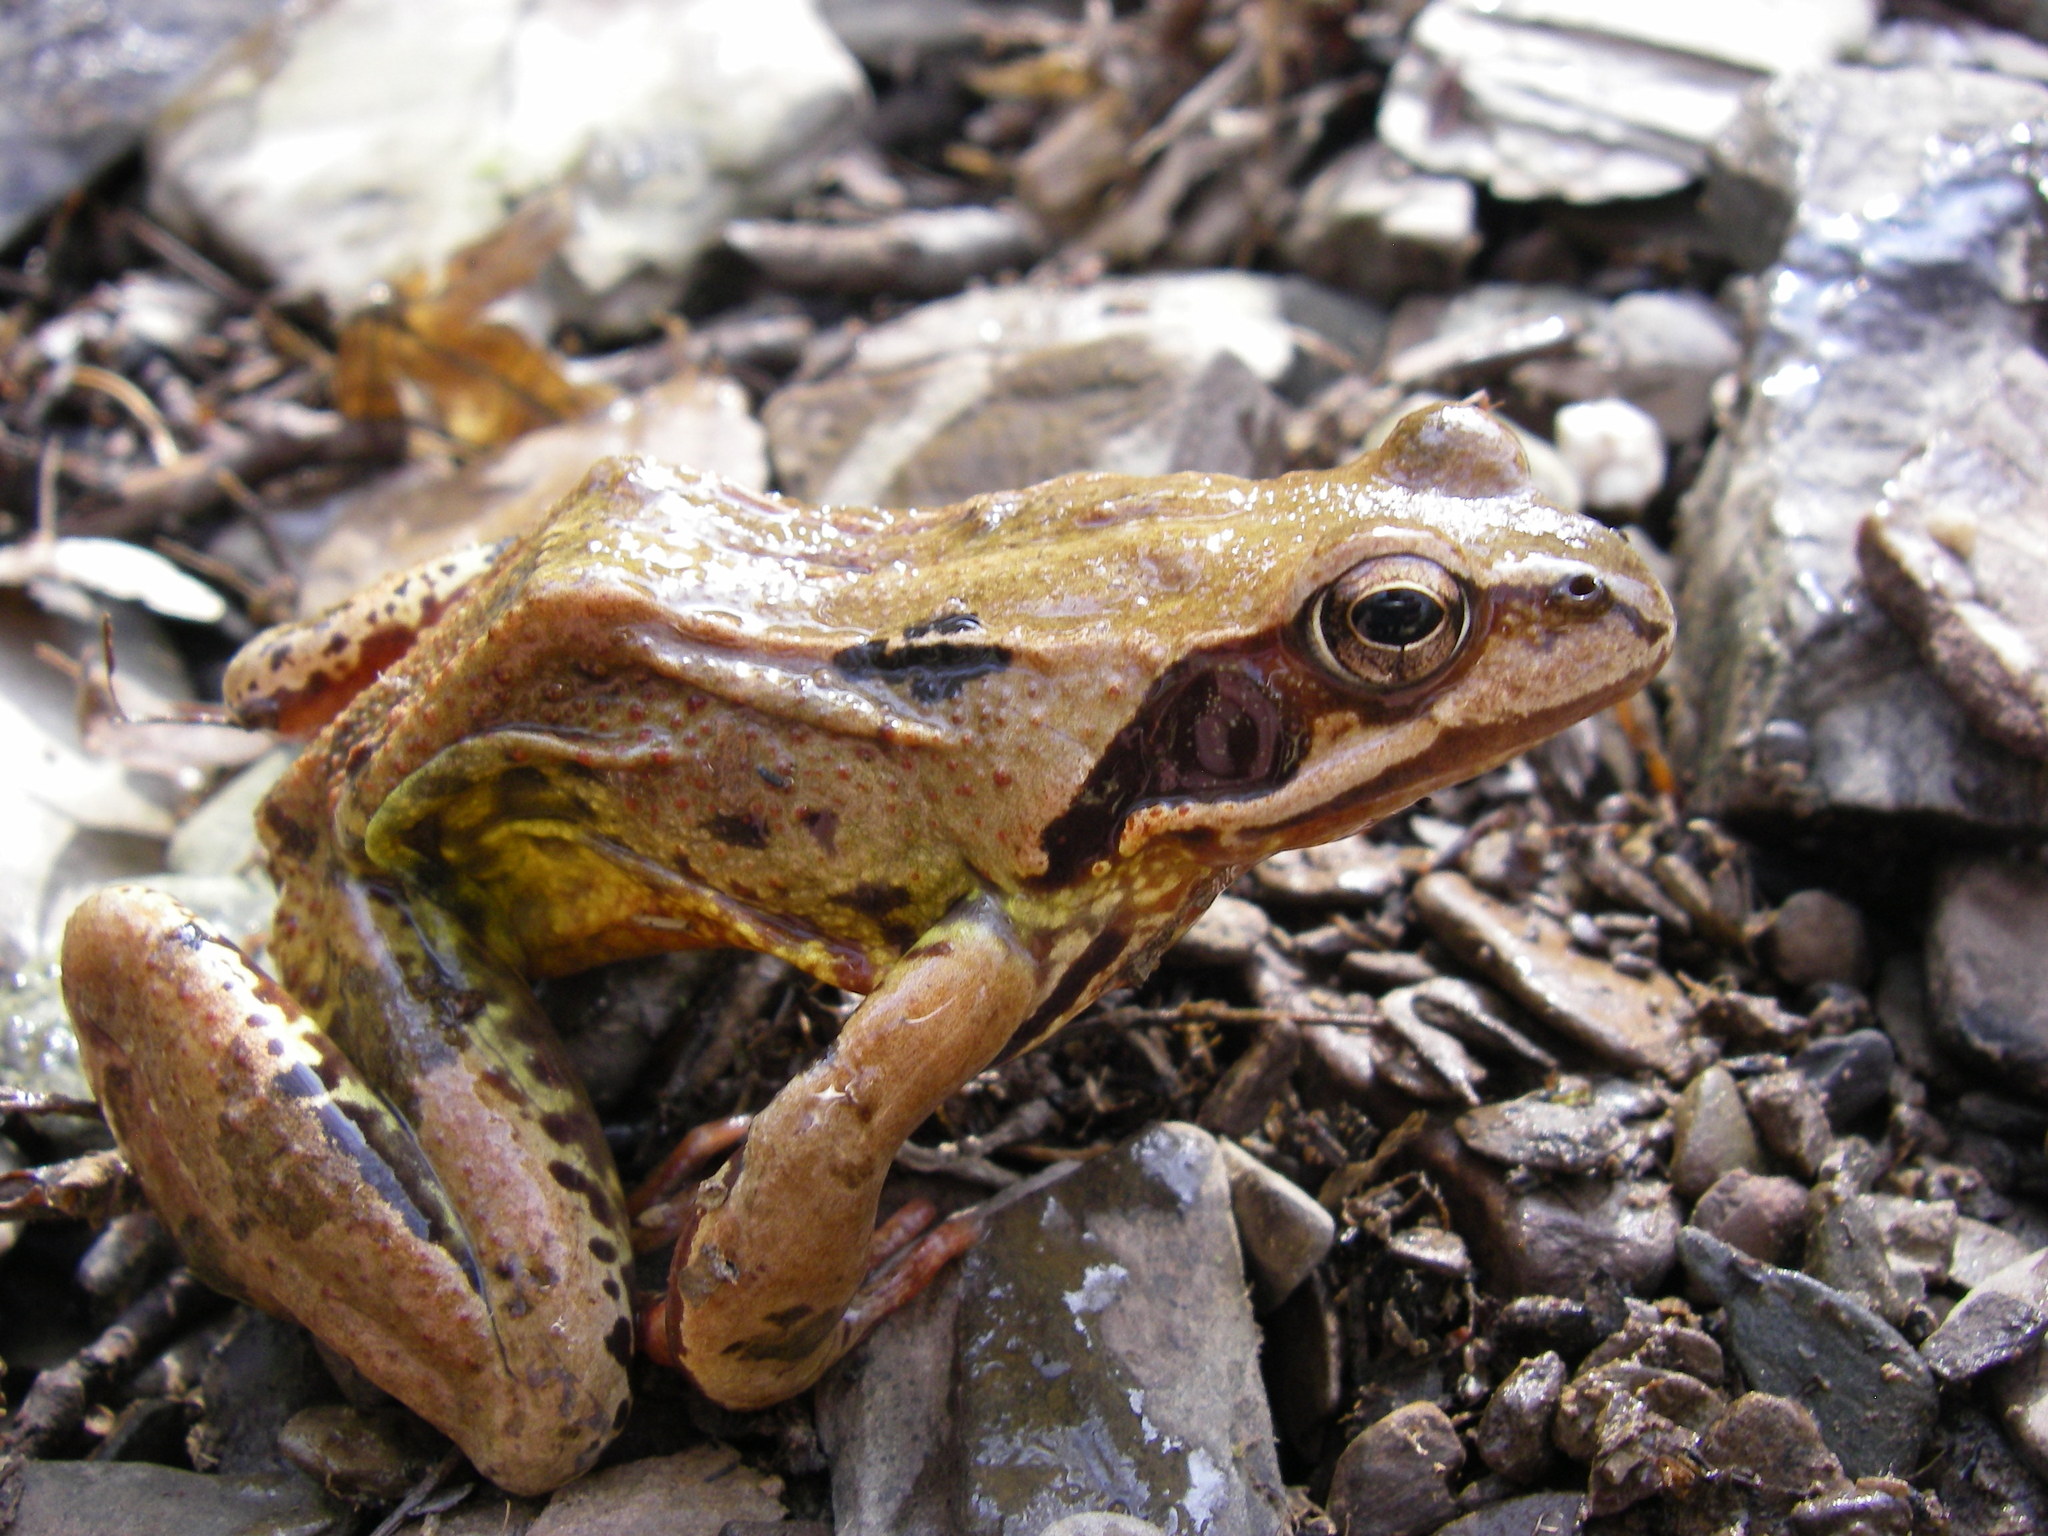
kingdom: Animalia
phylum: Chordata
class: Amphibia
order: Anura
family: Ranidae
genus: Rana
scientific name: Rana temporaria
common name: Common frog
